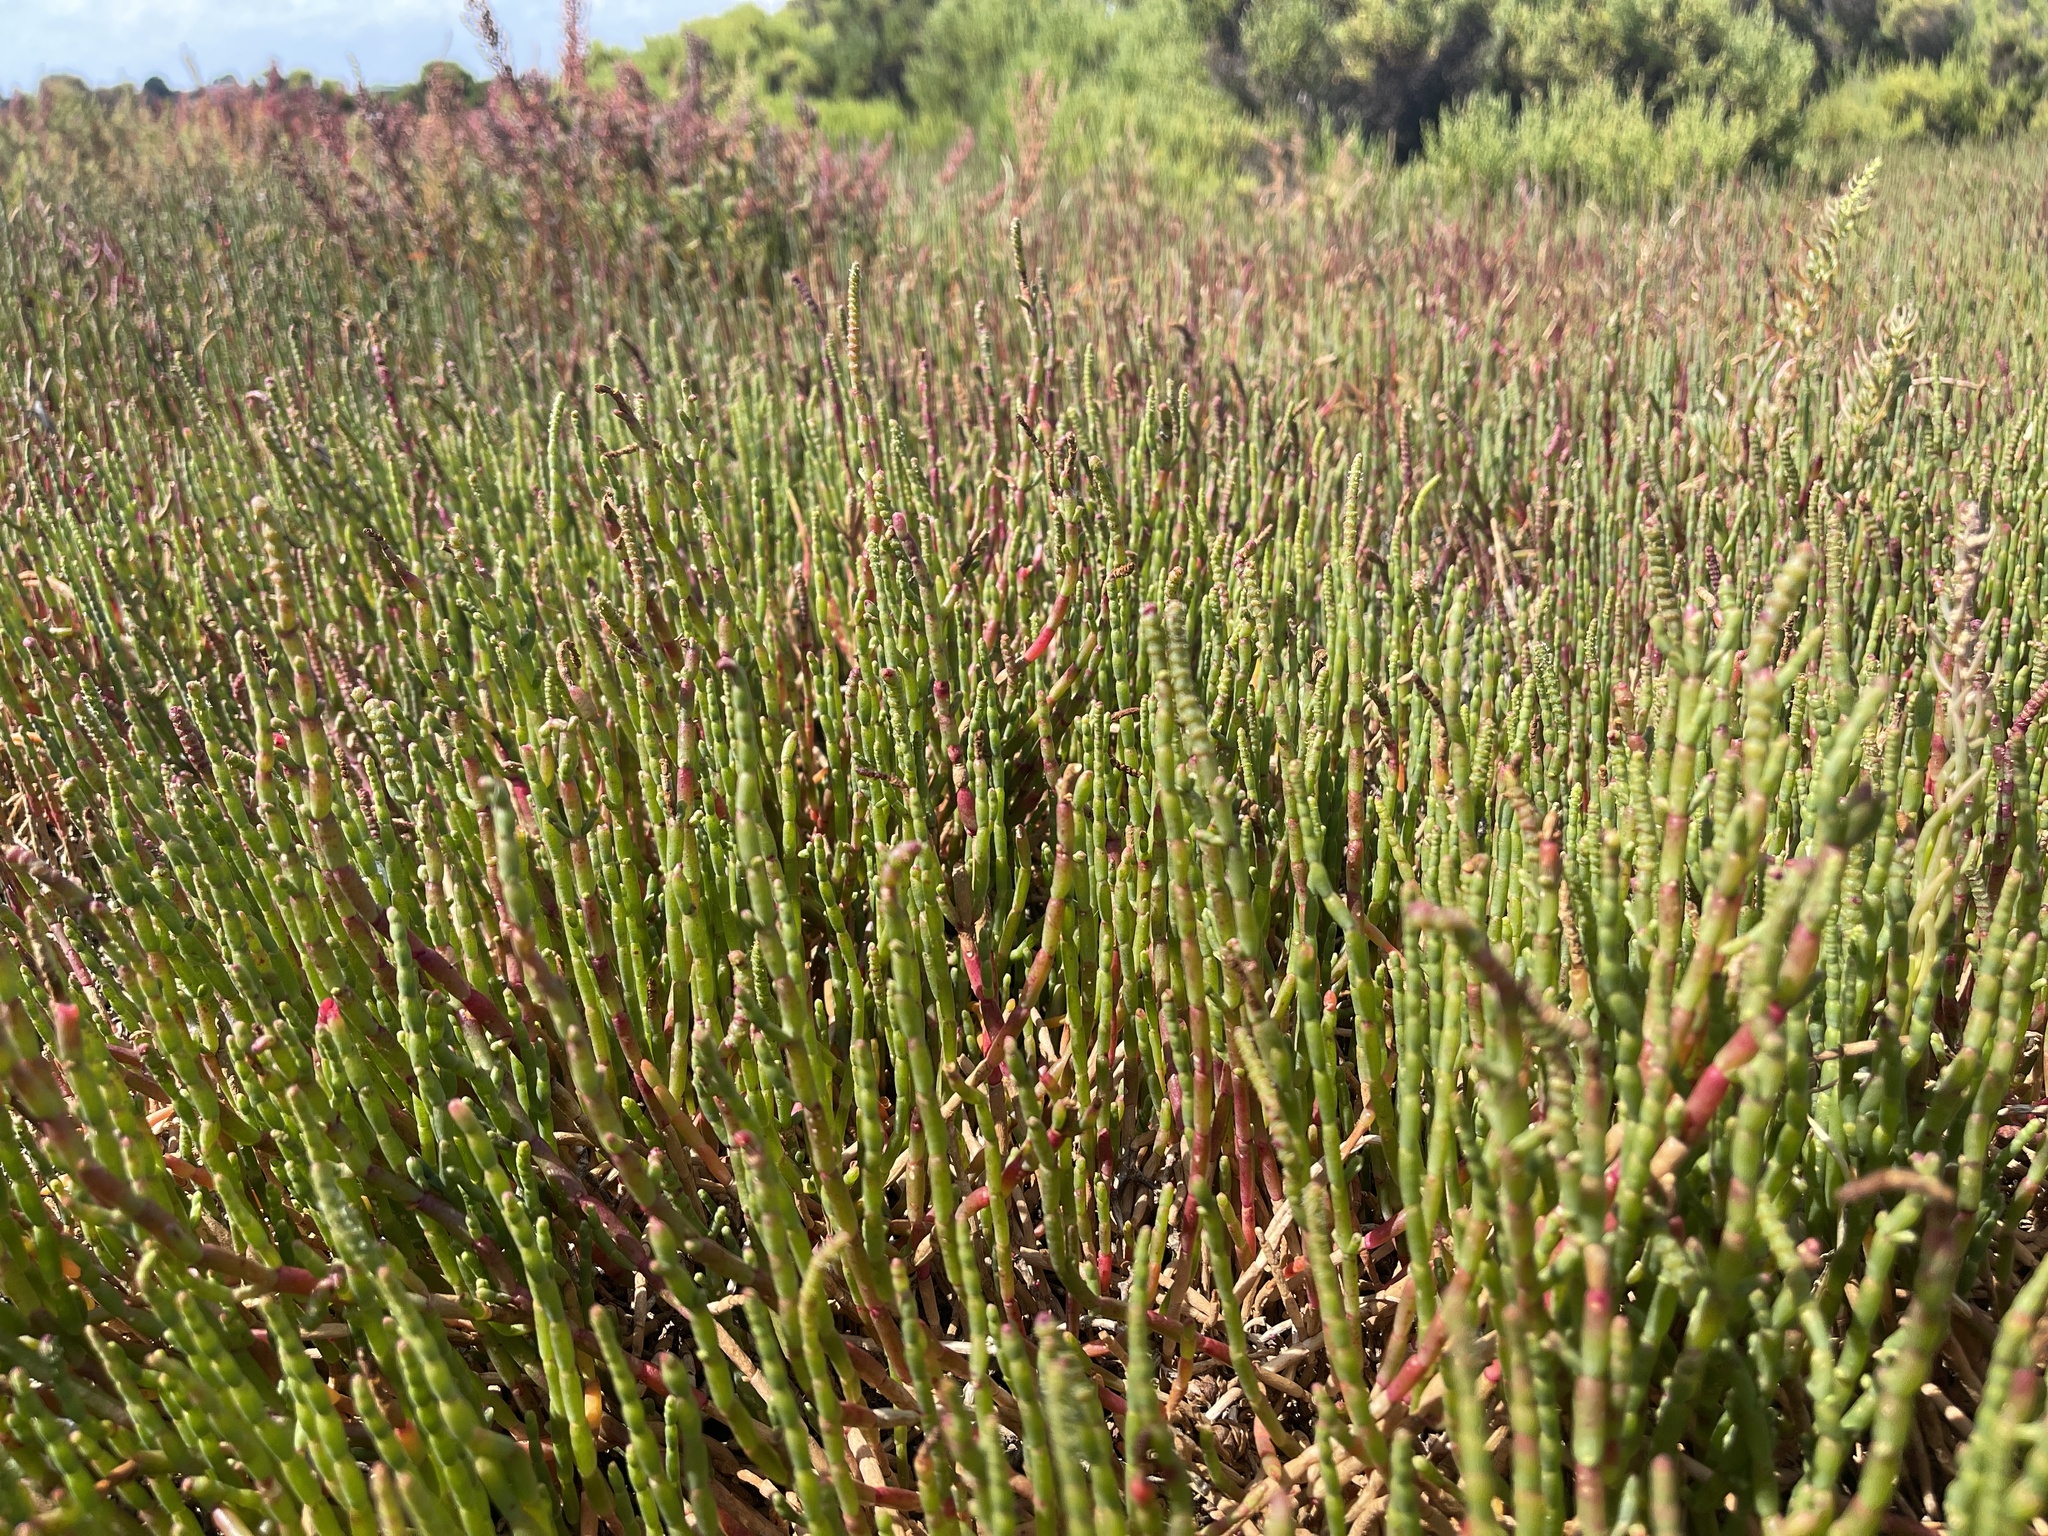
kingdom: Plantae
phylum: Tracheophyta
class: Magnoliopsida
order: Caryophyllales
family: Amaranthaceae
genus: Salicornia
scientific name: Salicornia quinqueflora
